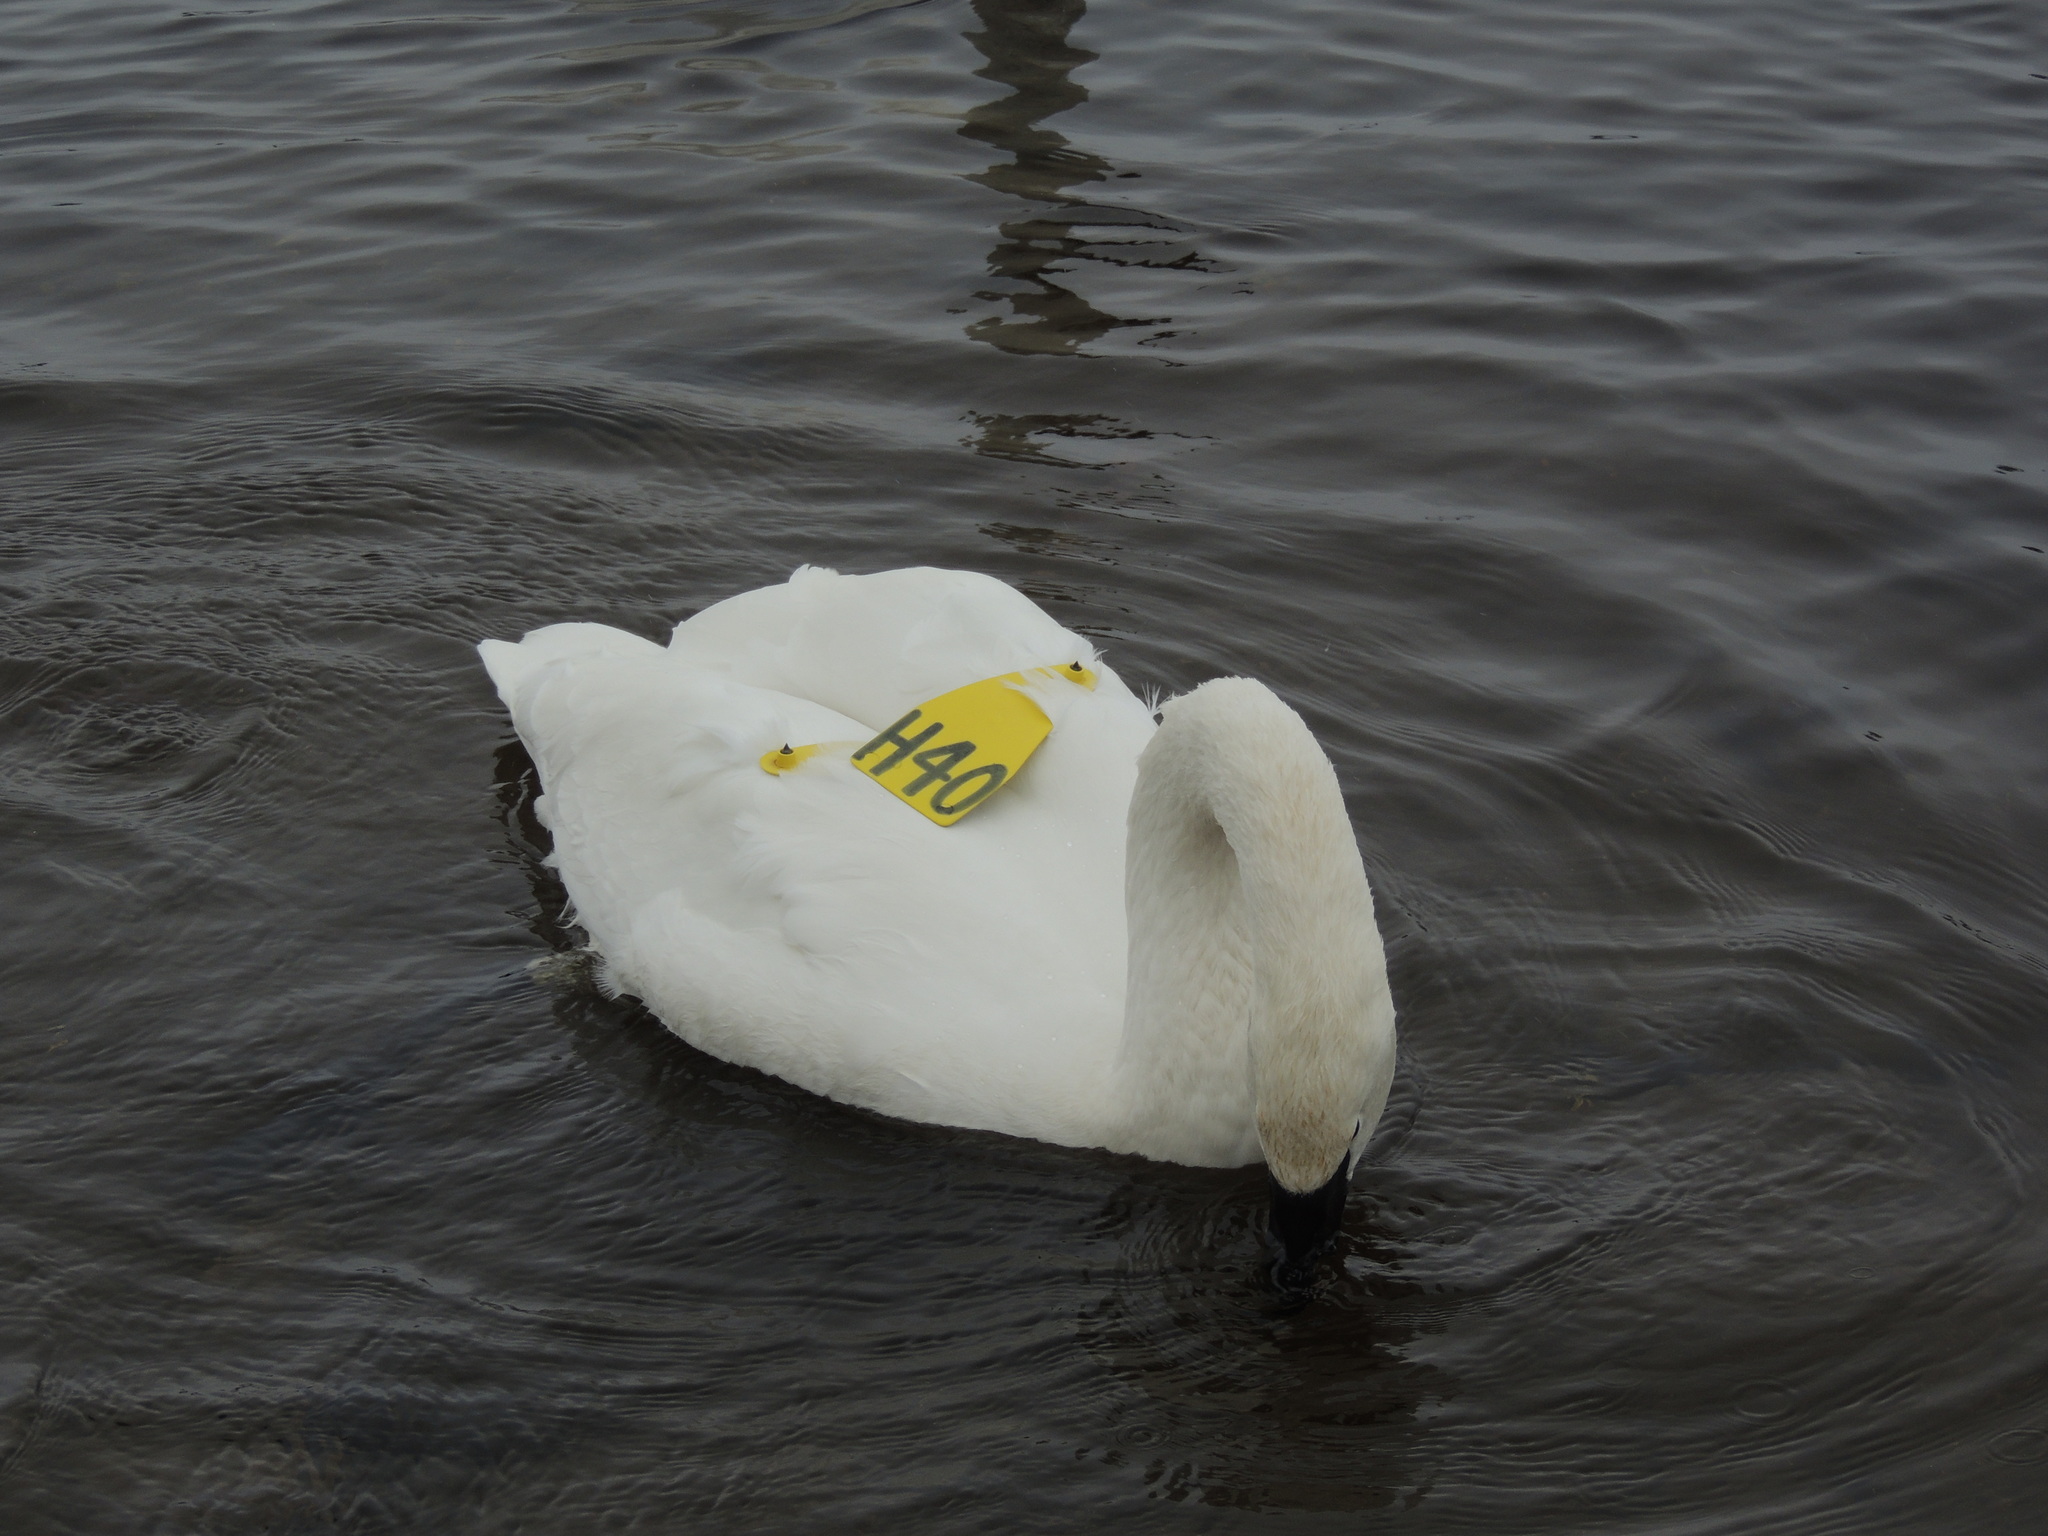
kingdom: Animalia
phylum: Chordata
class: Aves
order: Anseriformes
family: Anatidae
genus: Cygnus
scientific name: Cygnus buccinator
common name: Trumpeter swan
